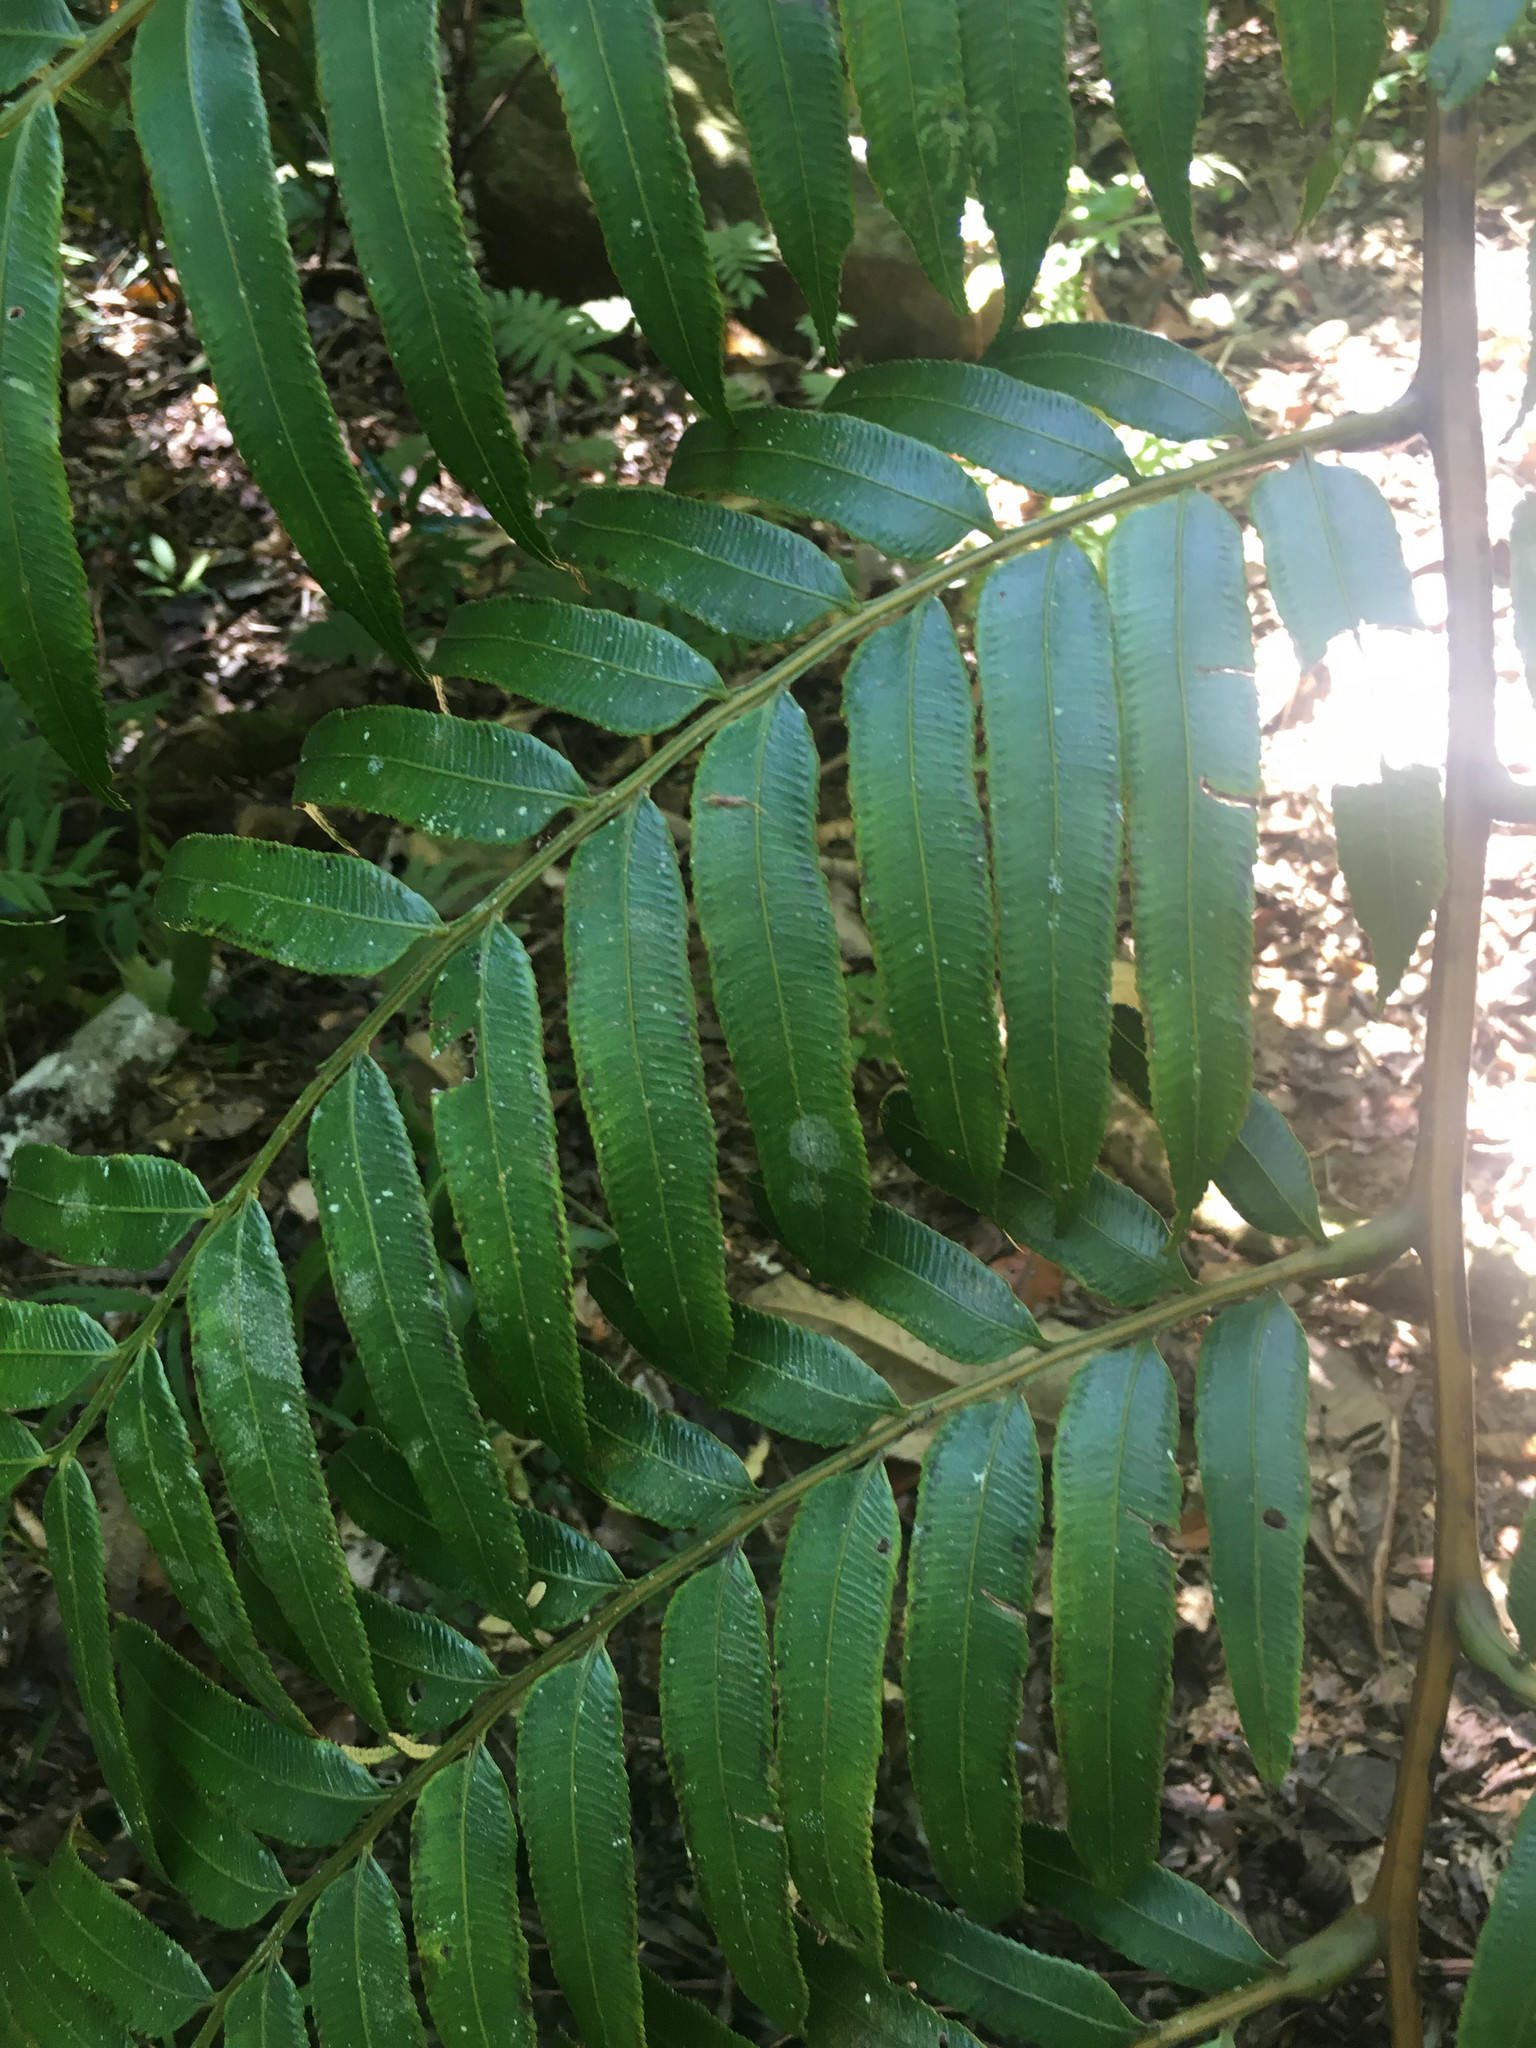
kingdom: Plantae
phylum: Tracheophyta
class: Polypodiopsida
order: Marattiales
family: Marattiaceae
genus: Ptisana
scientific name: Ptisana attenuata
